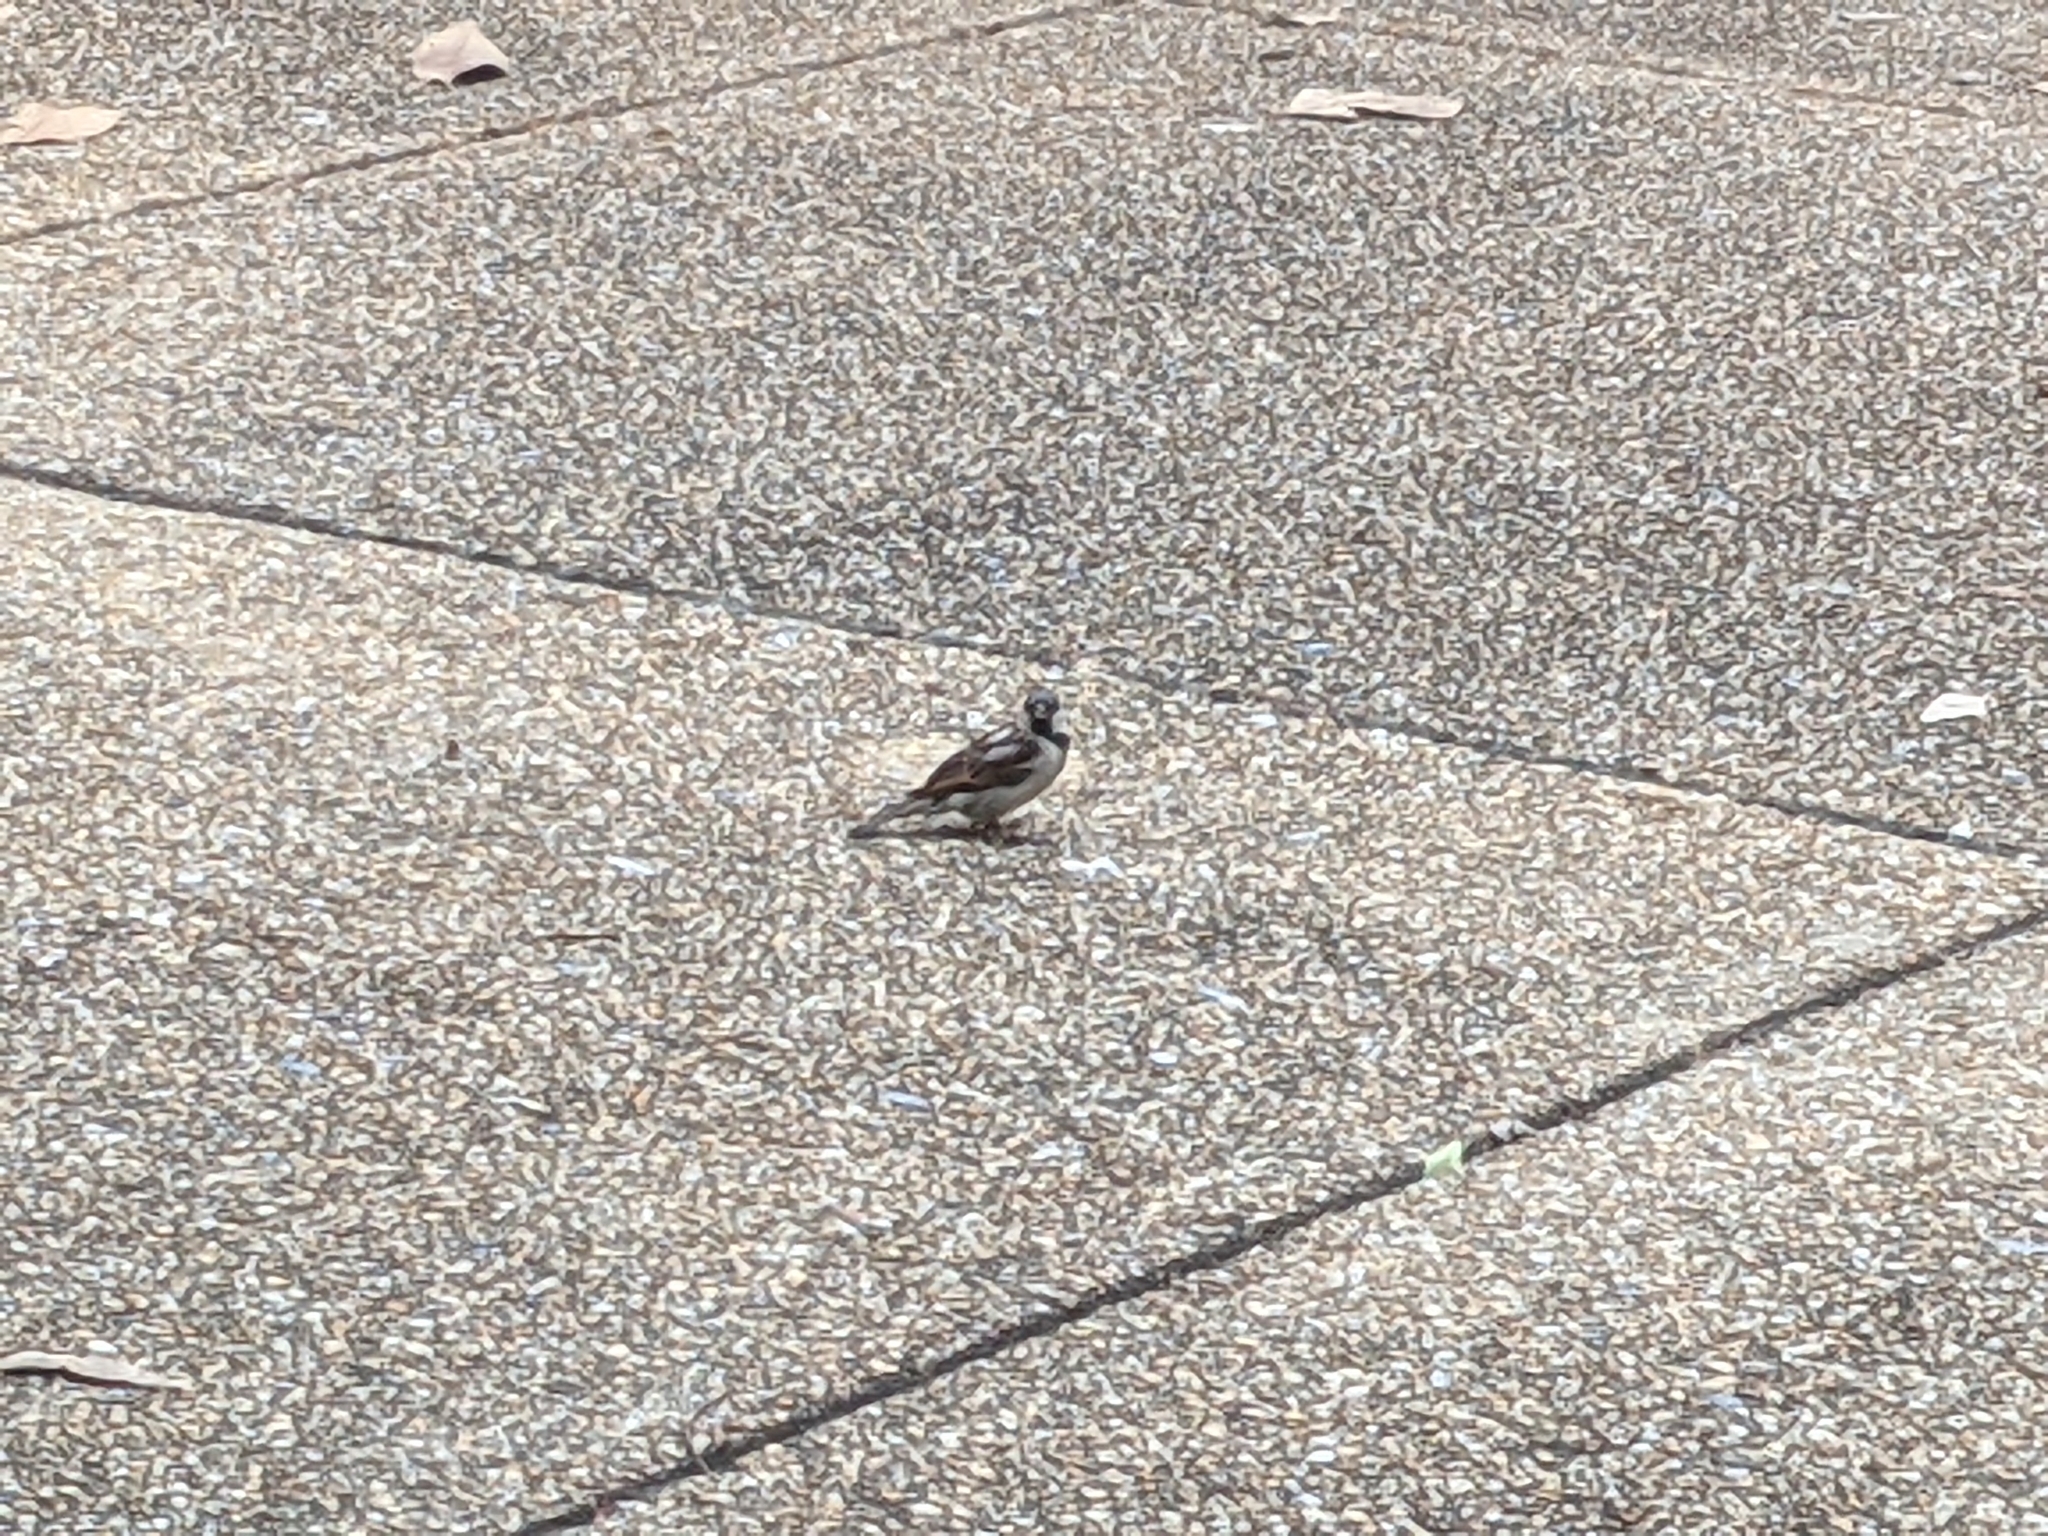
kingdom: Animalia
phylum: Chordata
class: Aves
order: Passeriformes
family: Passeridae
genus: Passer
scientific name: Passer domesticus
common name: House sparrow
